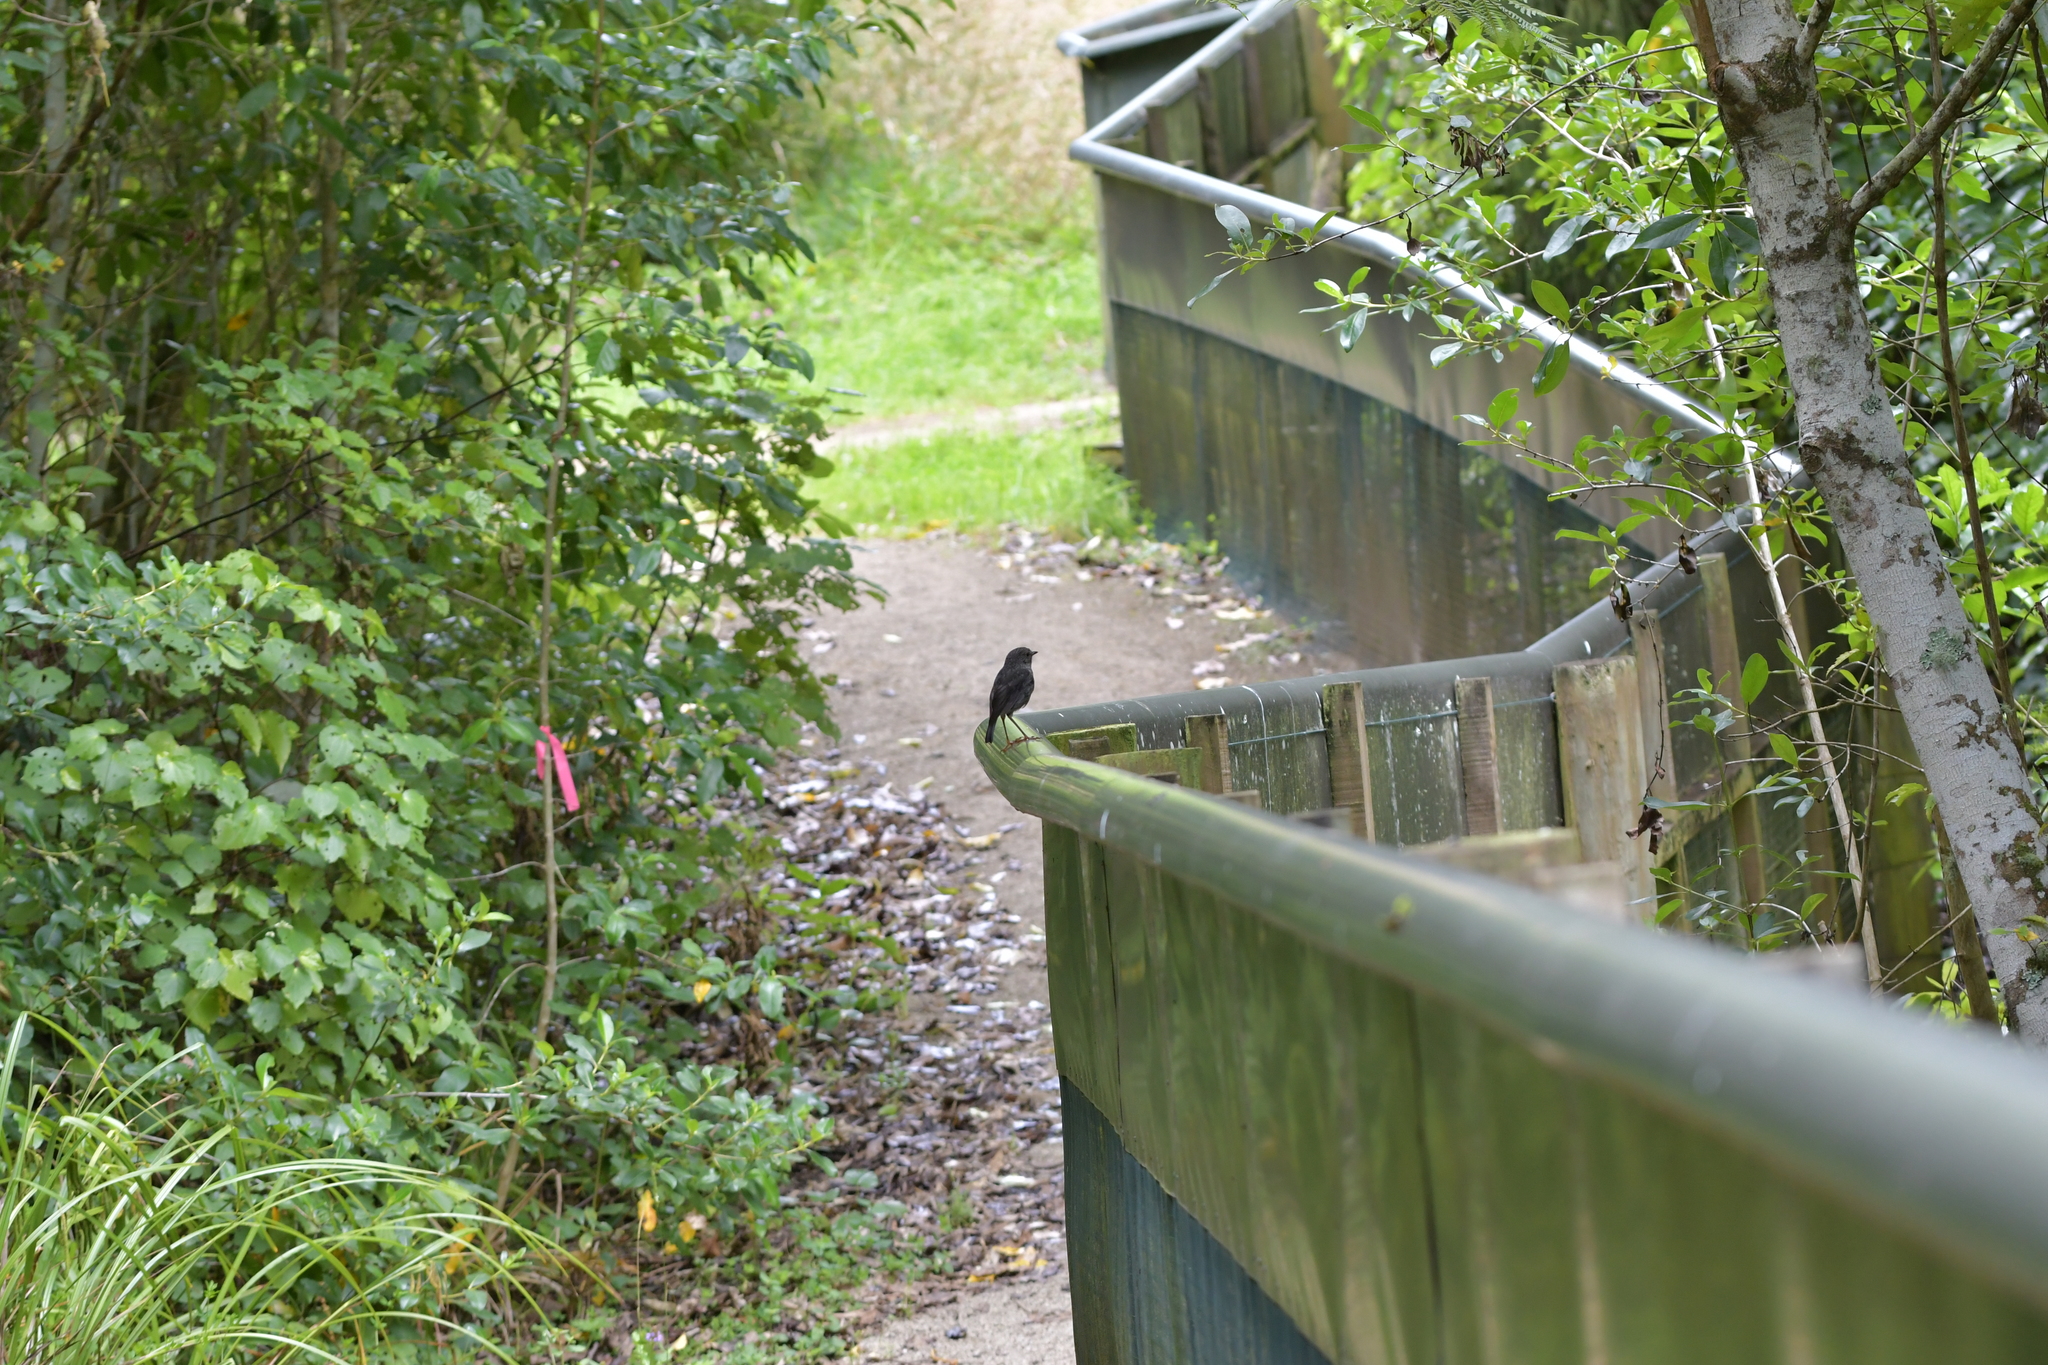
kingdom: Animalia
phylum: Chordata
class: Aves
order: Passeriformes
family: Petroicidae
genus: Petroica
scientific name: Petroica australis
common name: New zealand robin
